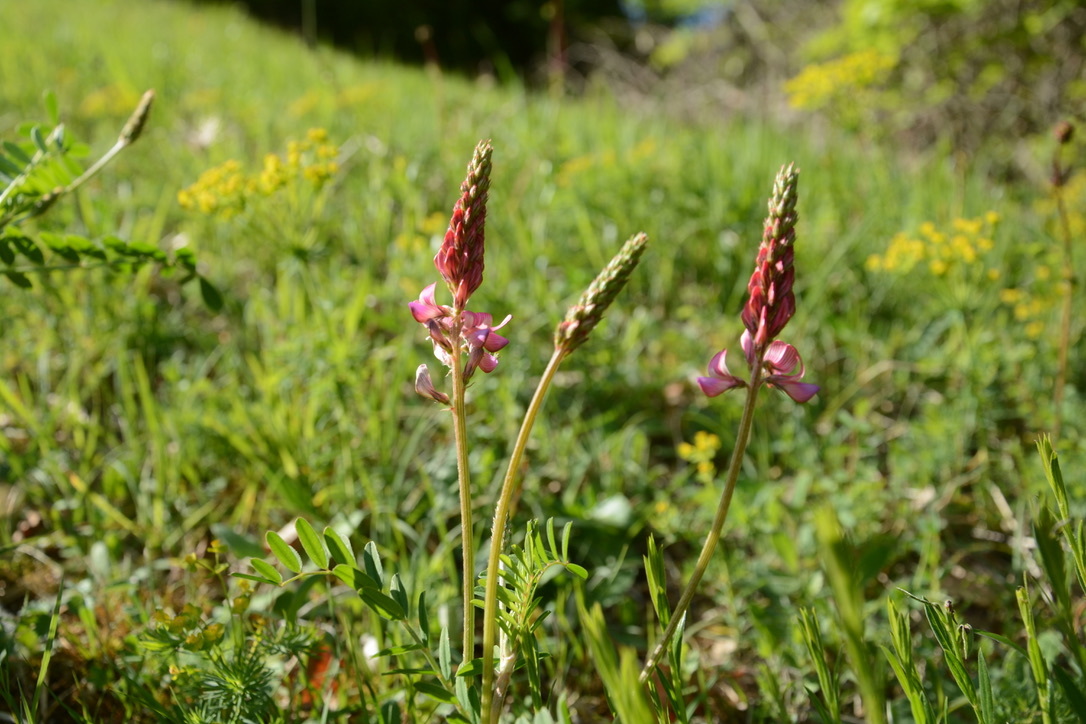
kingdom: Plantae
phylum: Tracheophyta
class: Magnoliopsida
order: Fabales
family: Fabaceae
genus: Onobrychis
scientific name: Onobrychis viciifolia
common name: Sainfoin
